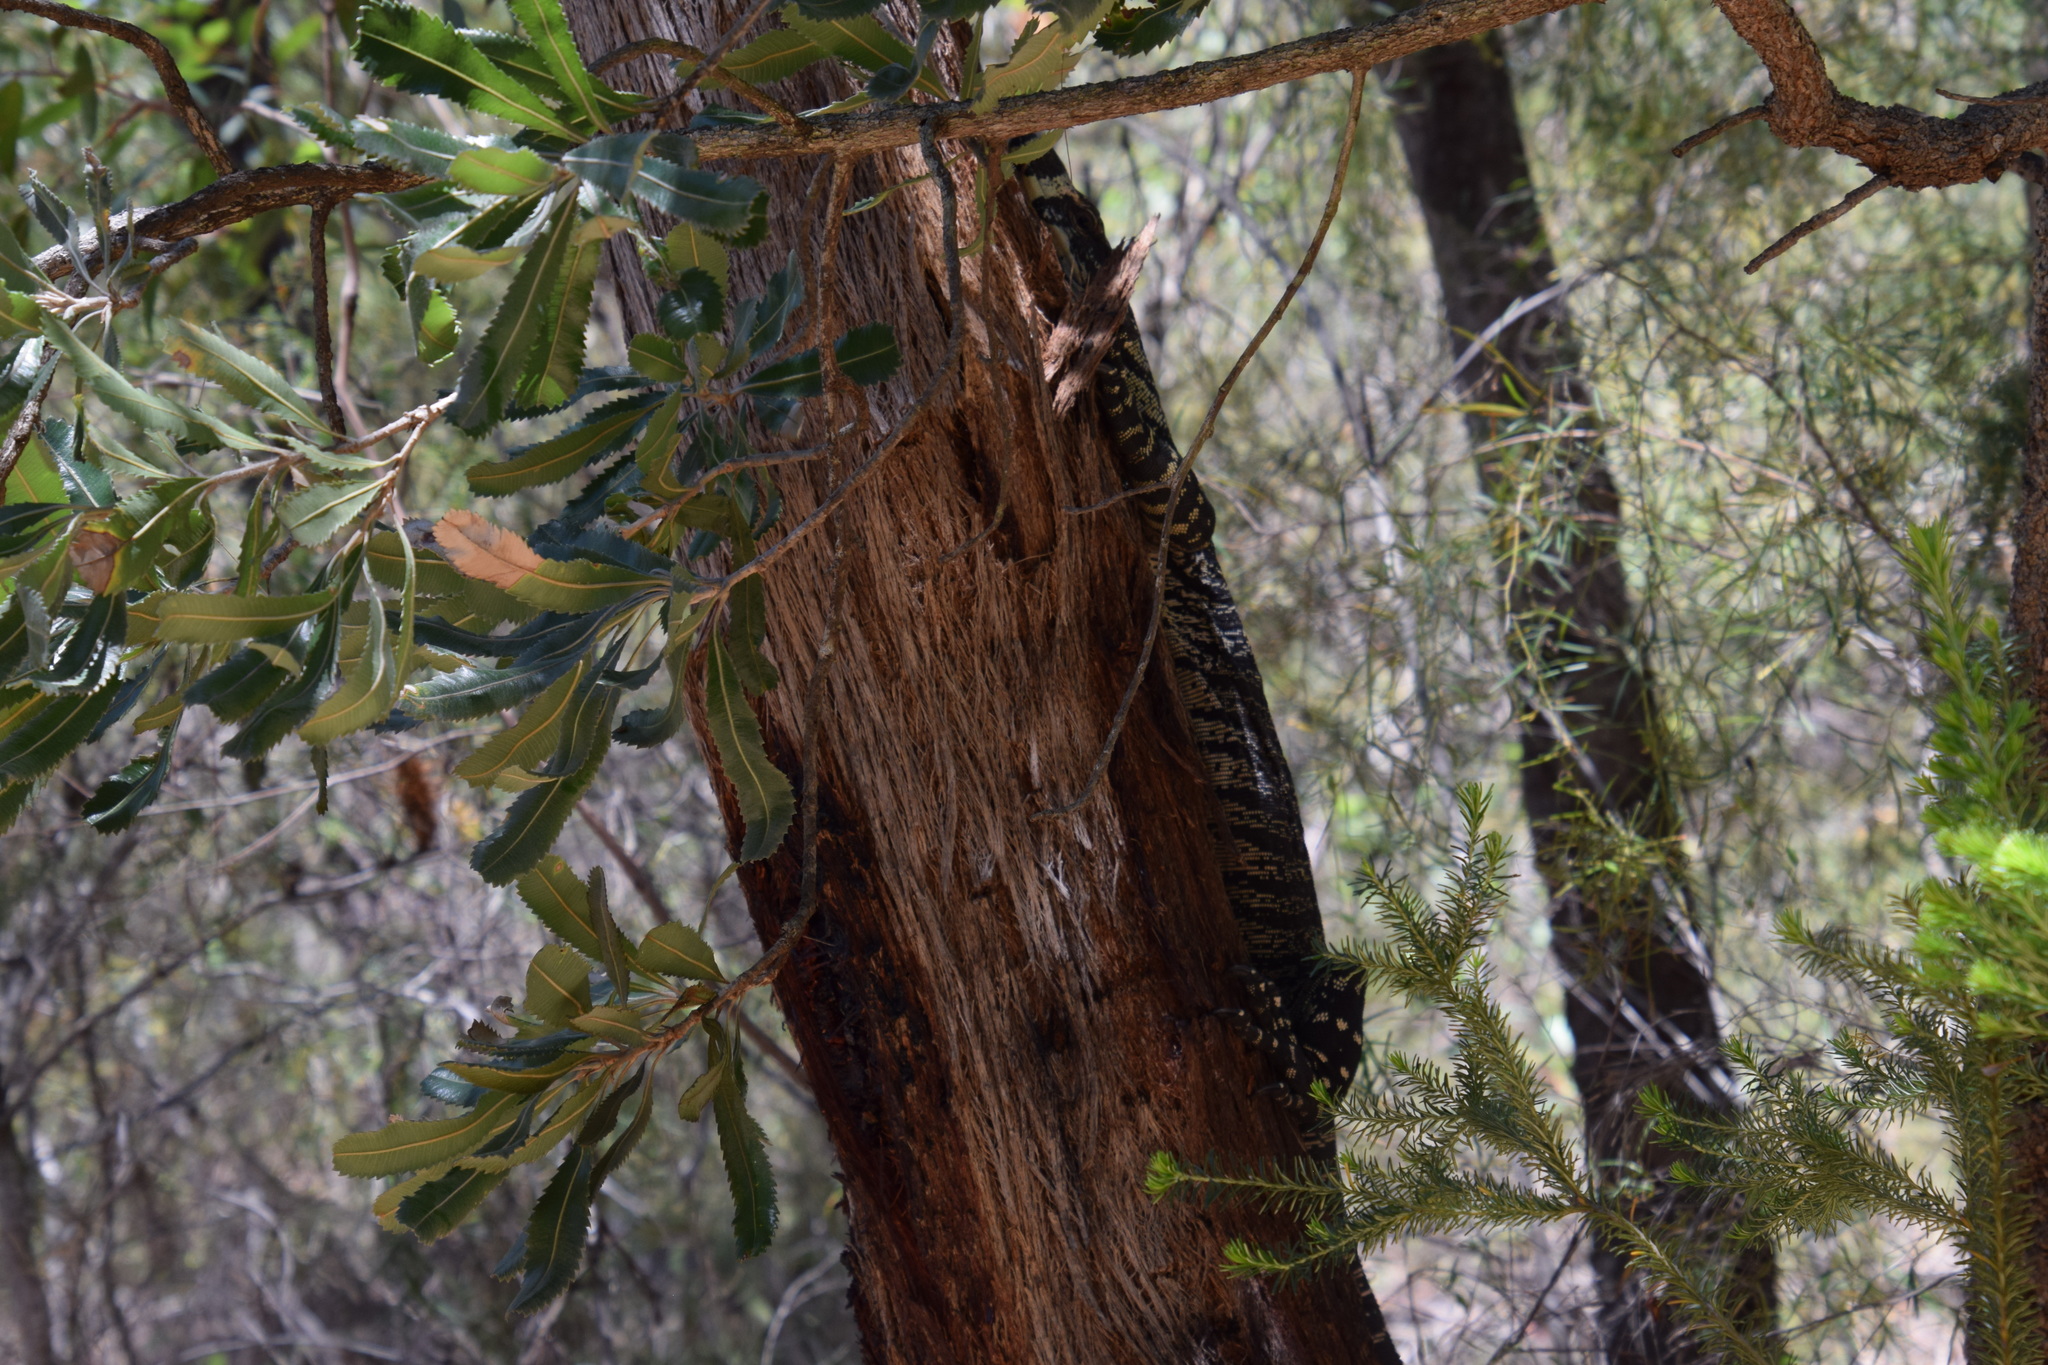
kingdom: Animalia
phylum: Chordata
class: Squamata
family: Varanidae
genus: Varanus
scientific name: Varanus varius
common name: Lace monitor
